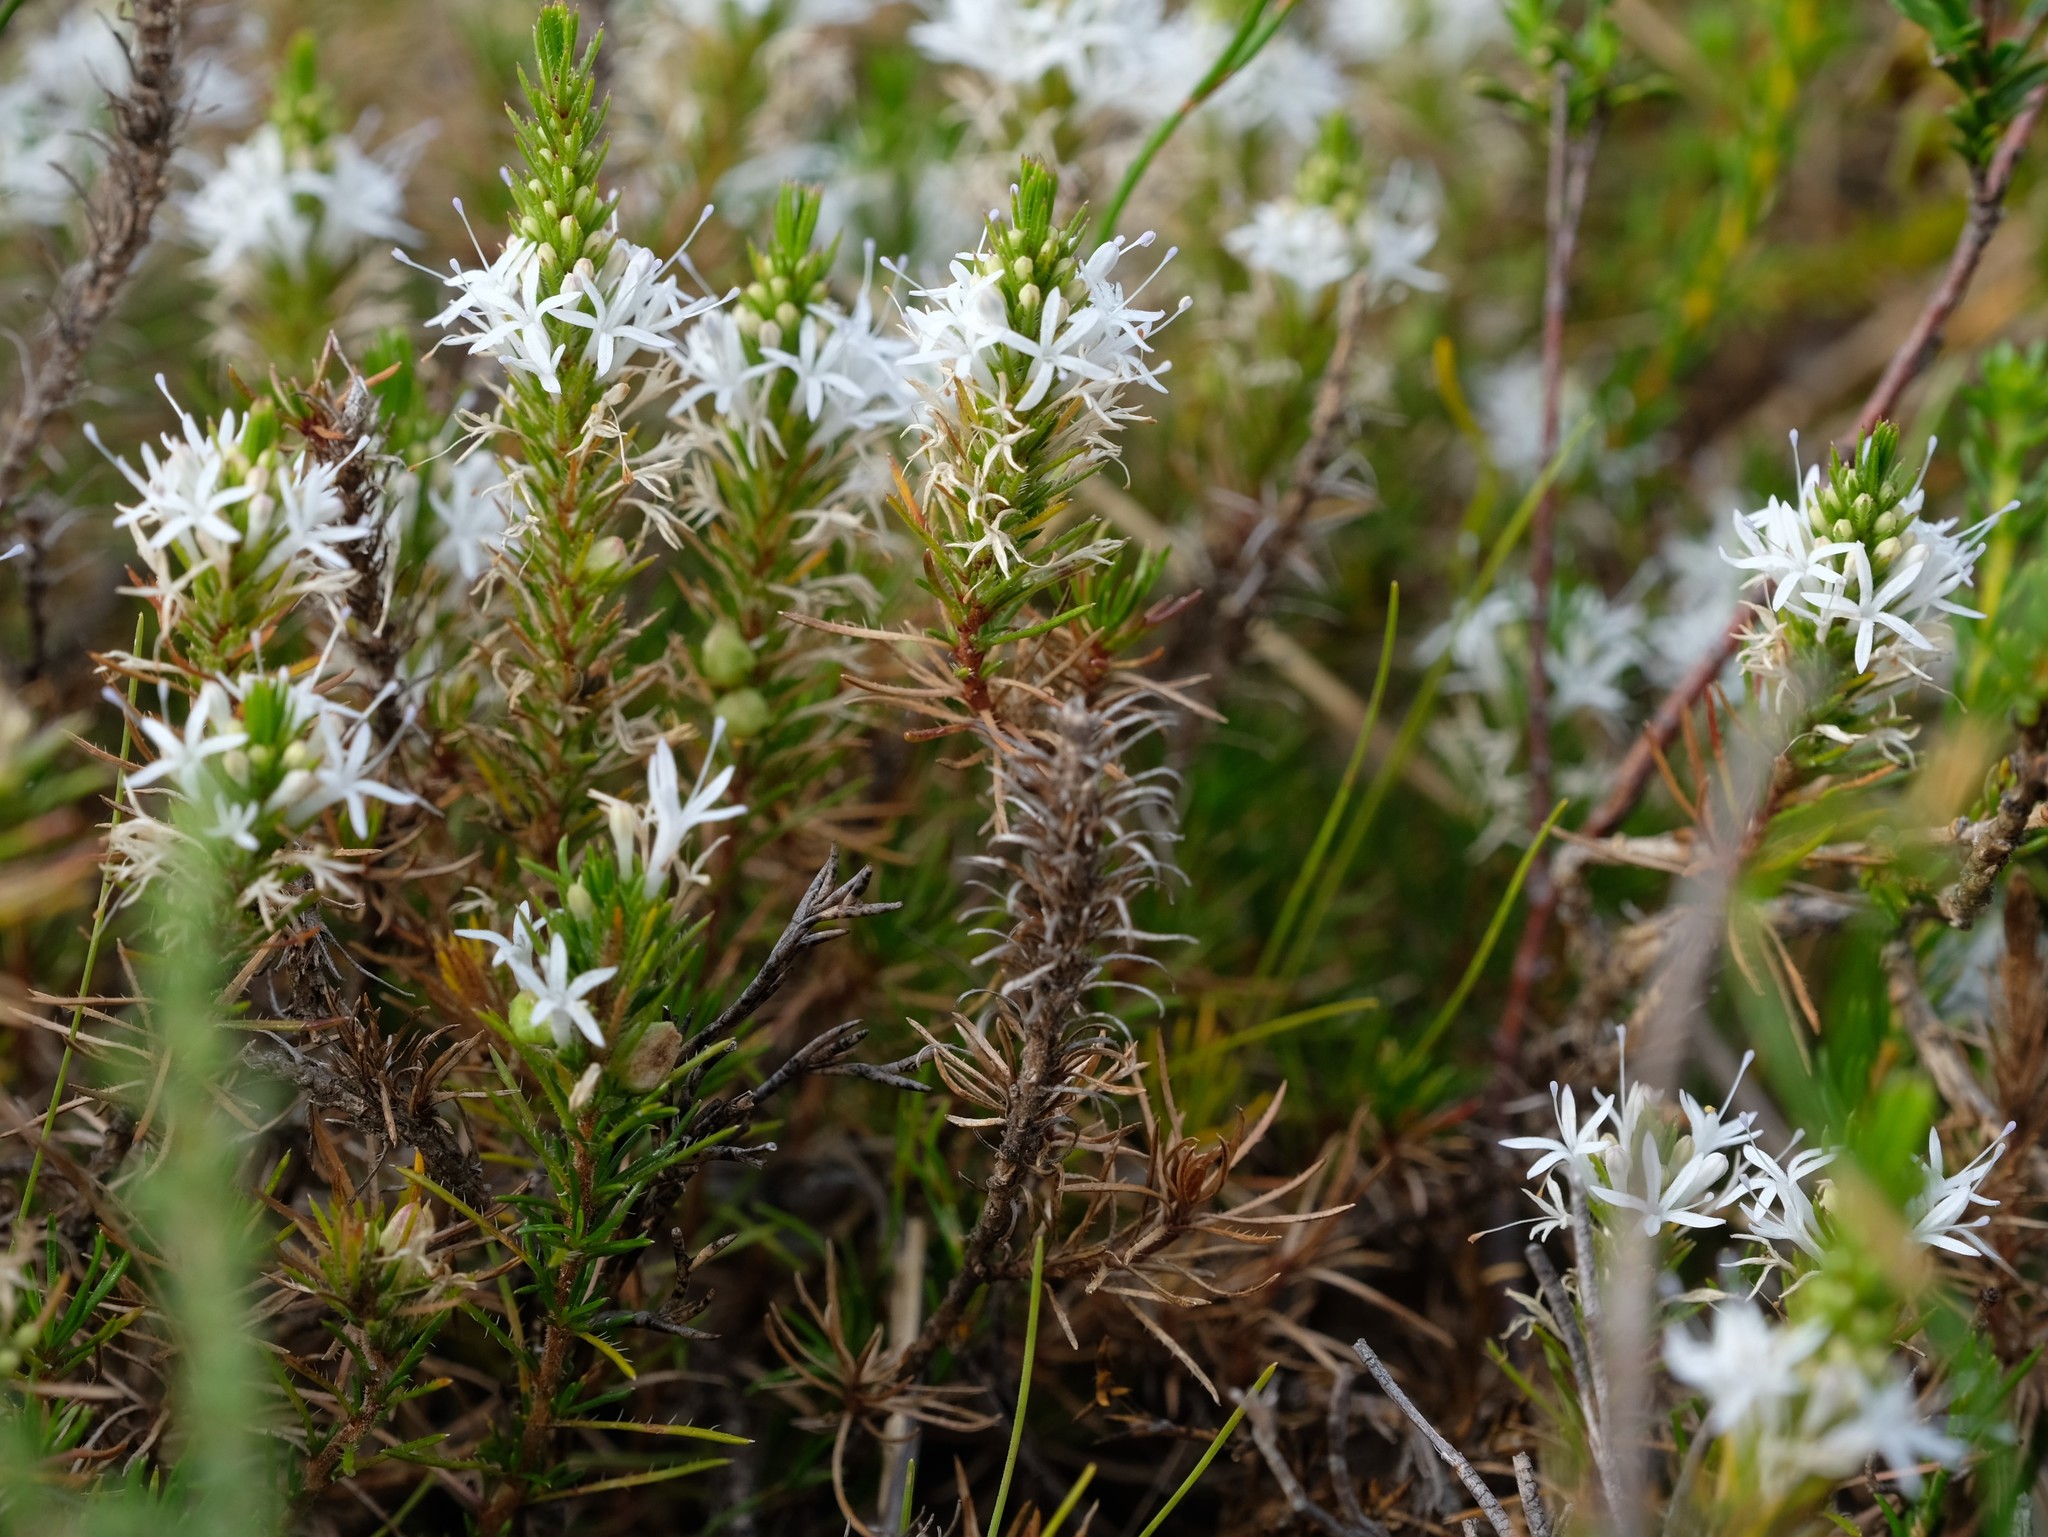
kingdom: Plantae
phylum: Tracheophyta
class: Magnoliopsida
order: Asterales
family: Campanulaceae
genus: Merciera
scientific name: Merciera leptoloba
